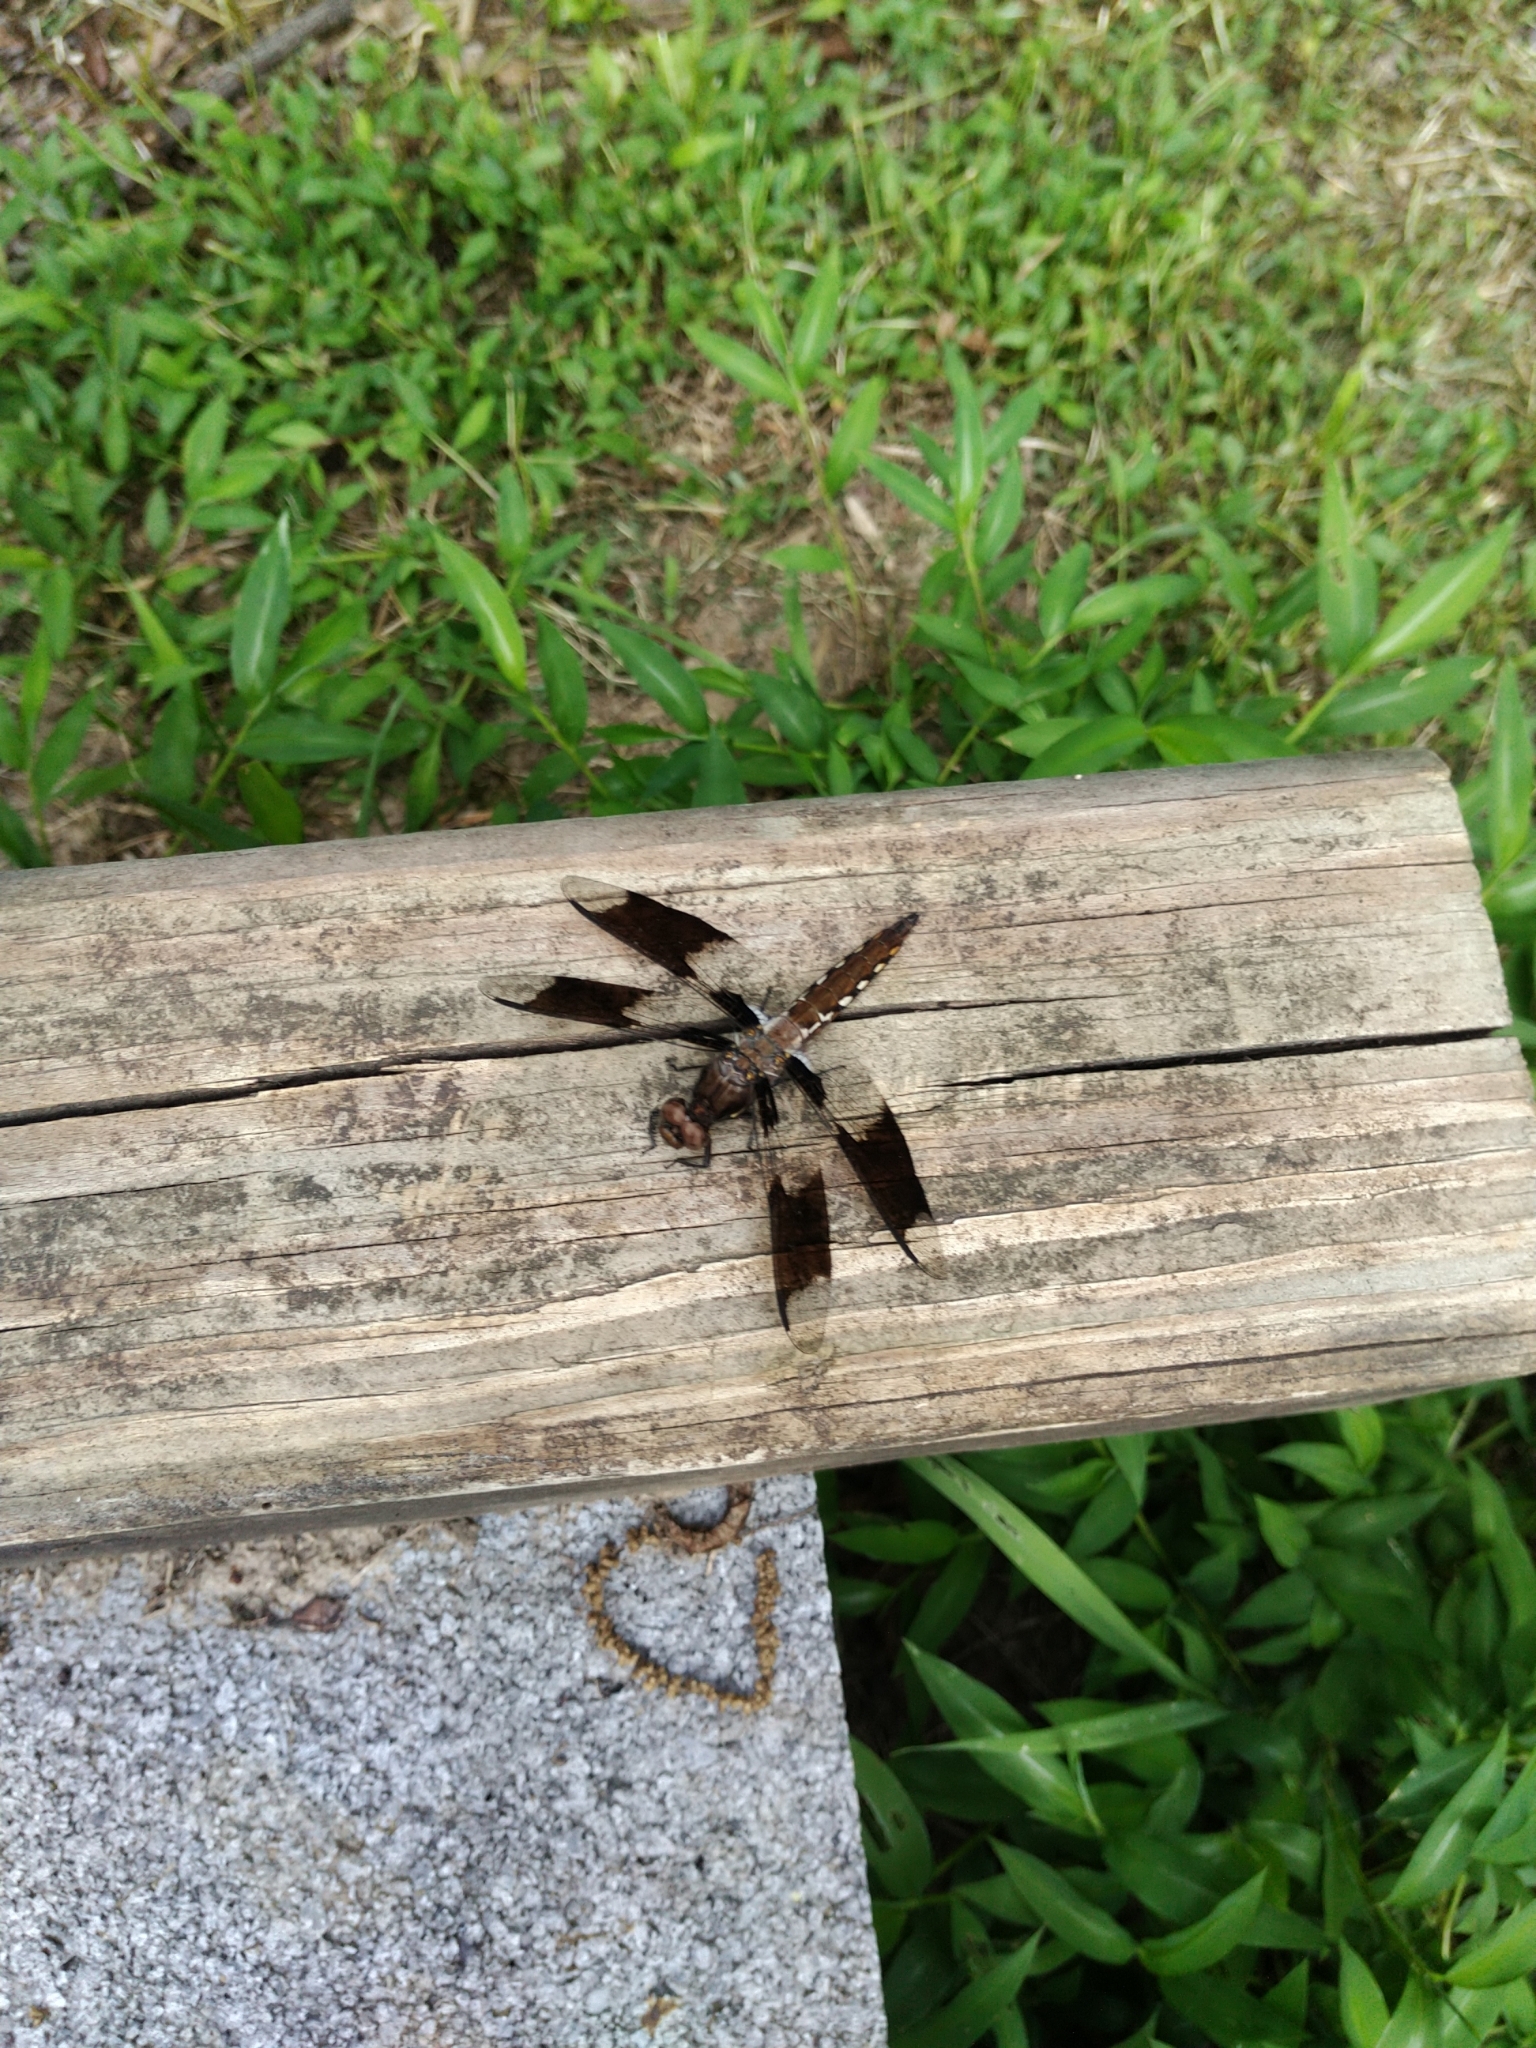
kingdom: Animalia
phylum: Arthropoda
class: Insecta
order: Odonata
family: Libellulidae
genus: Plathemis
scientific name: Plathemis lydia
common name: Common whitetail
